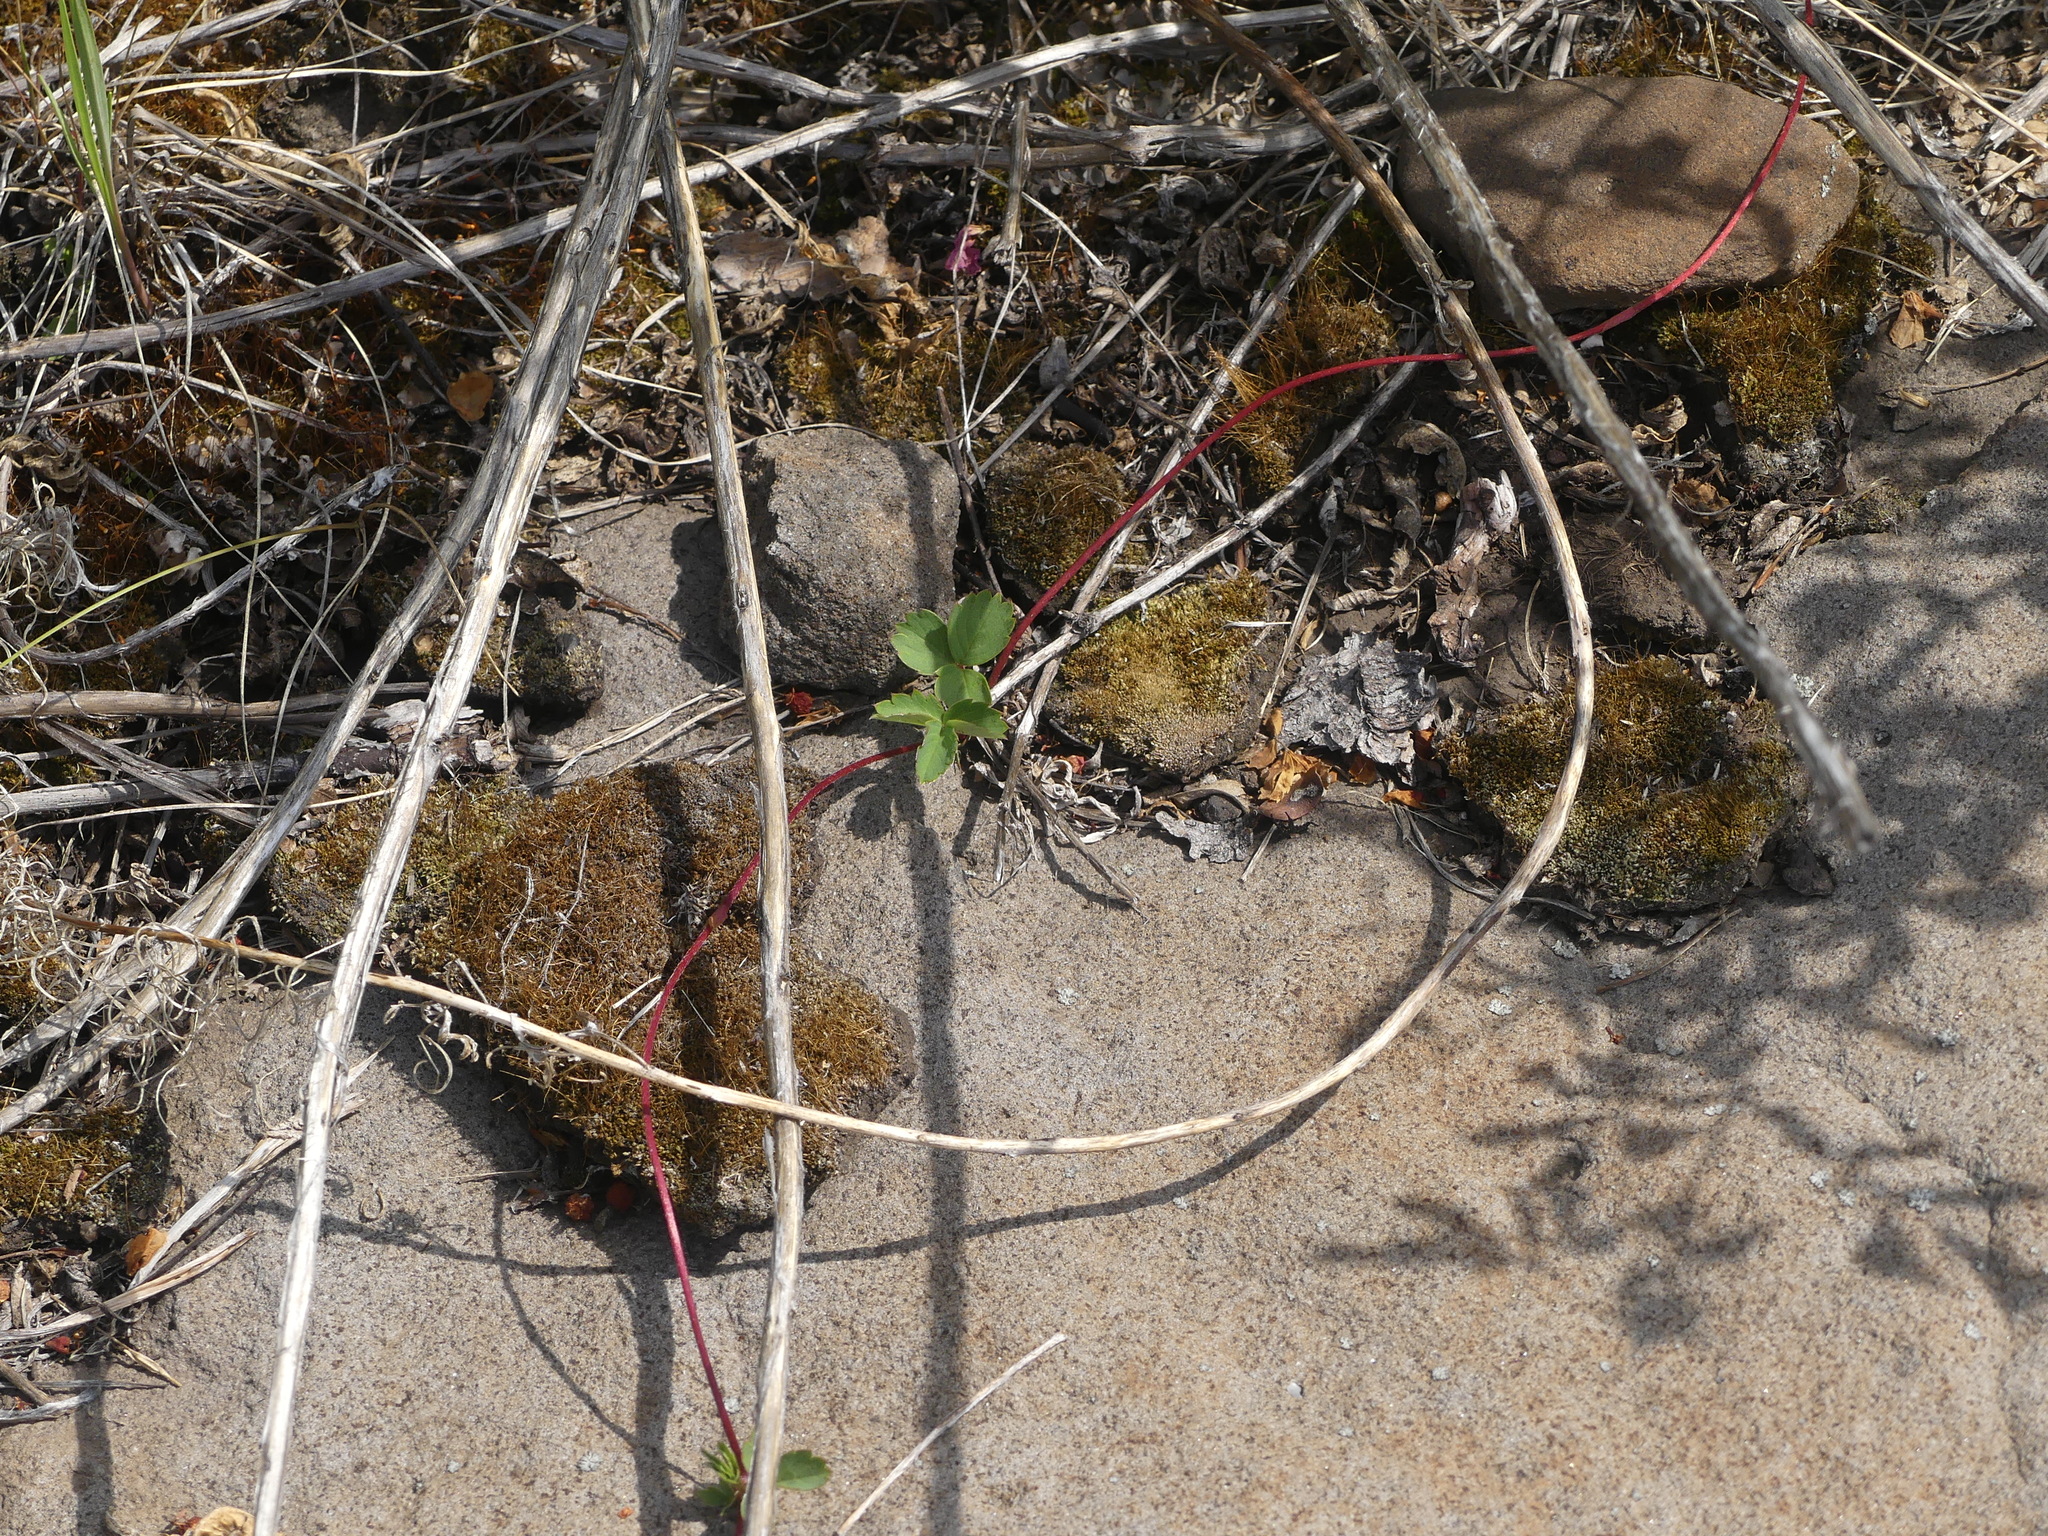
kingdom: Plantae
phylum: Tracheophyta
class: Magnoliopsida
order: Rosales
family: Rosaceae
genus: Fragaria
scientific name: Fragaria virginiana
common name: Thickleaved wild strawberry
